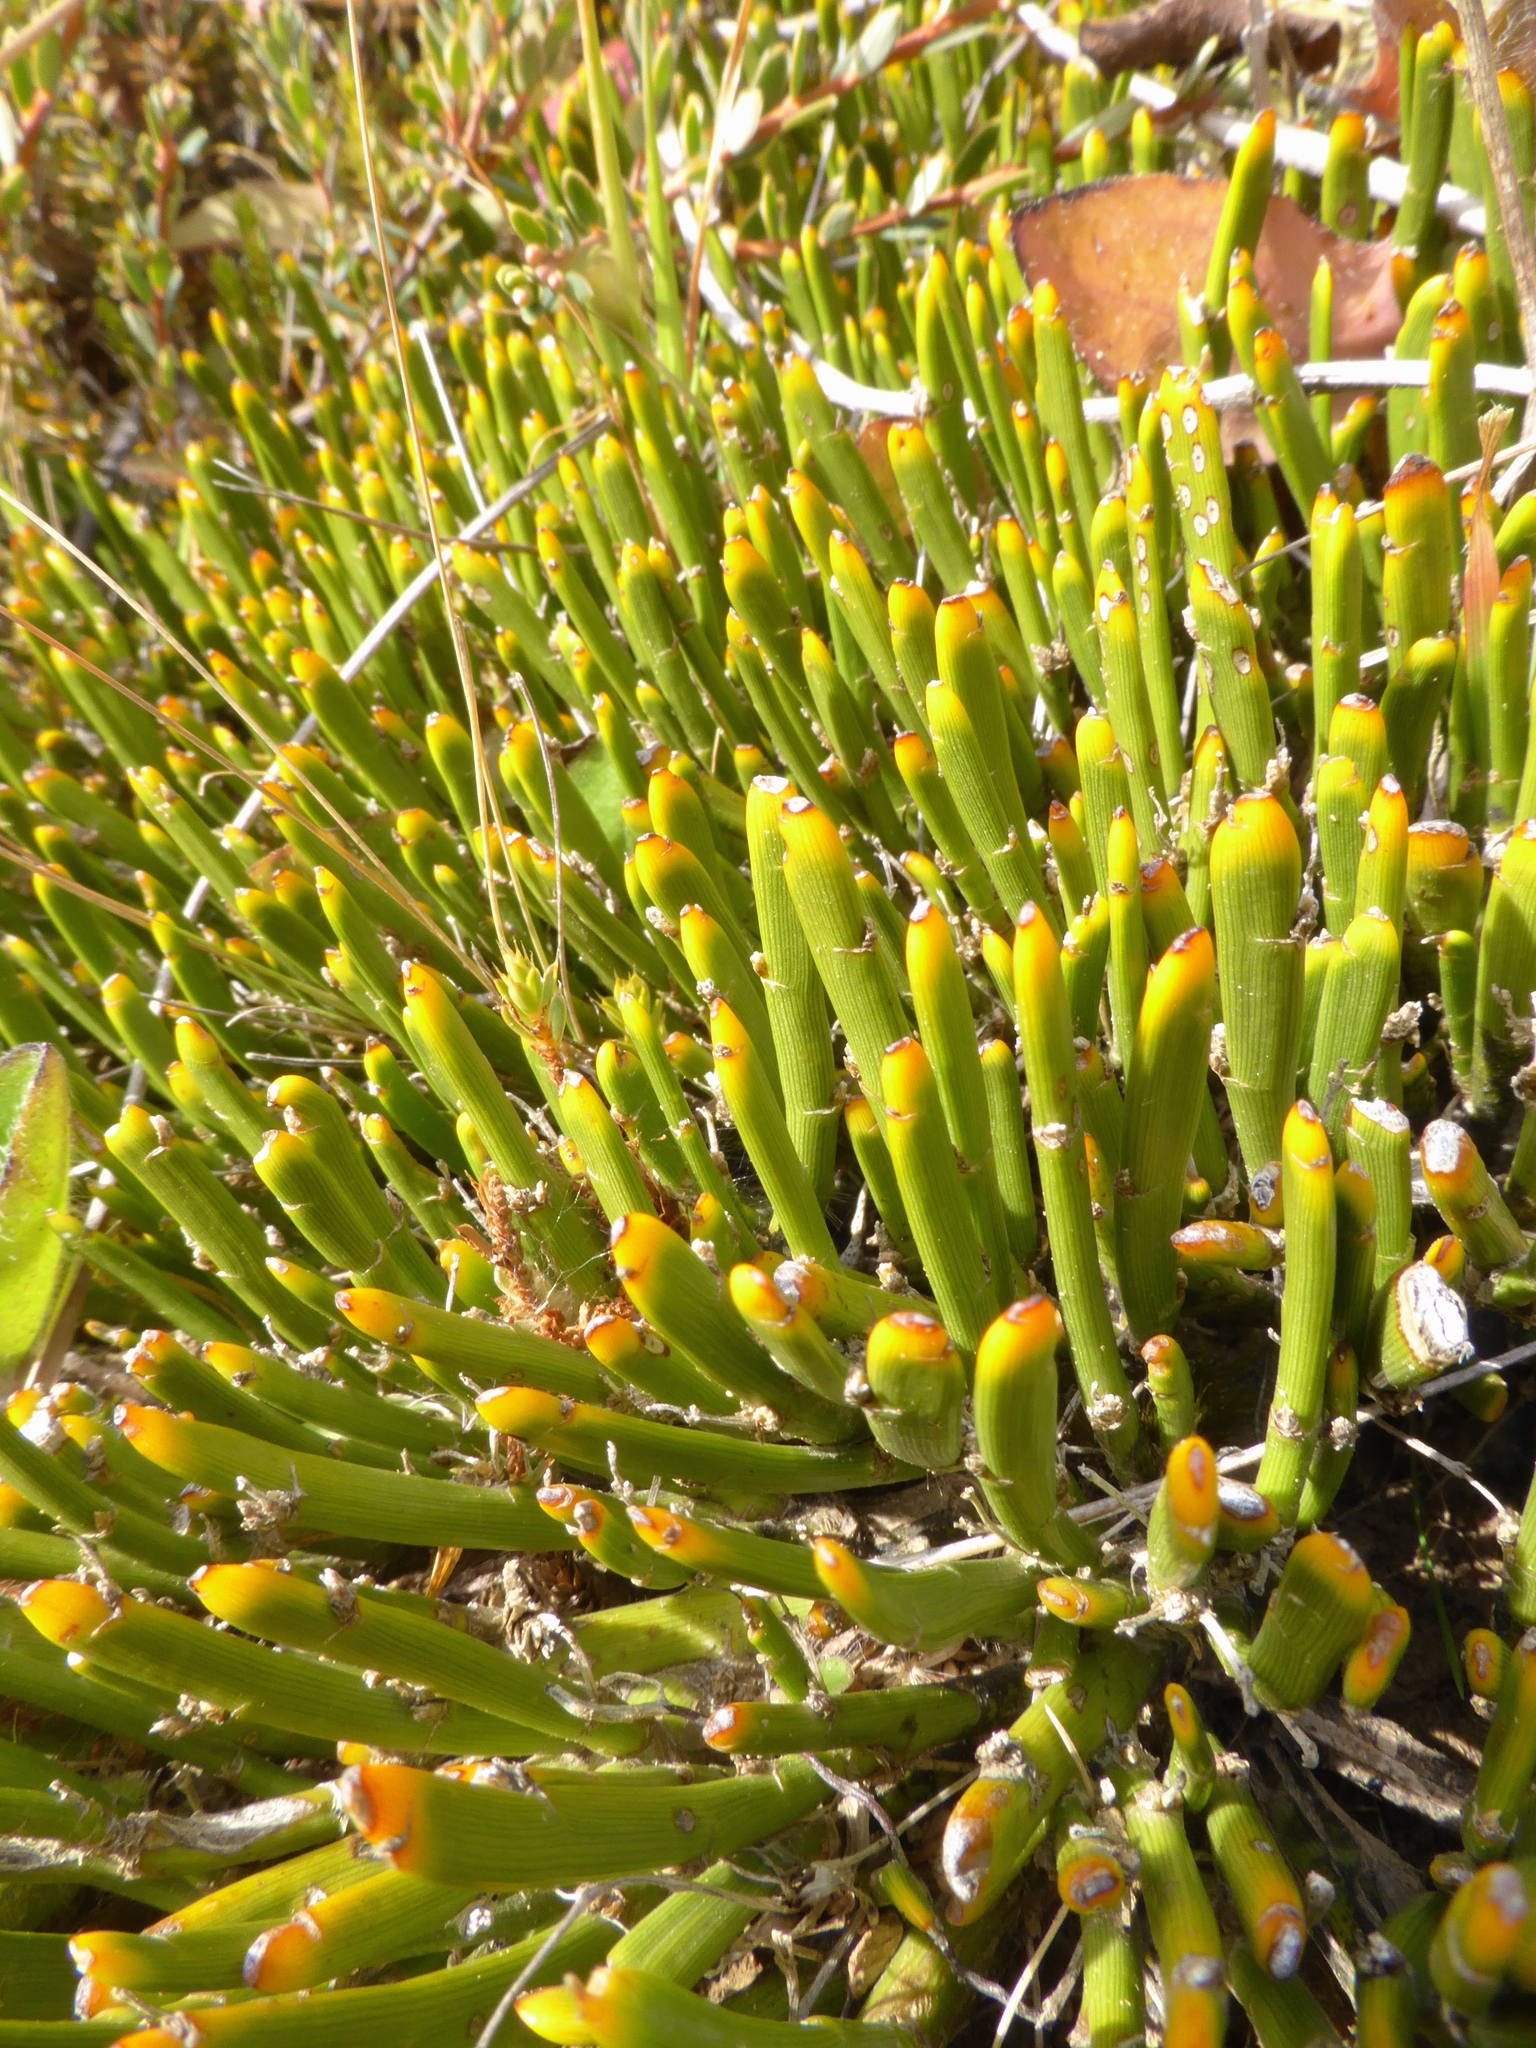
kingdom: Plantae
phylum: Tracheophyta
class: Magnoliopsida
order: Fabales
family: Fabaceae
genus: Carmichaelia
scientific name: Carmichaelia monroi
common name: Stout dwarf broom
